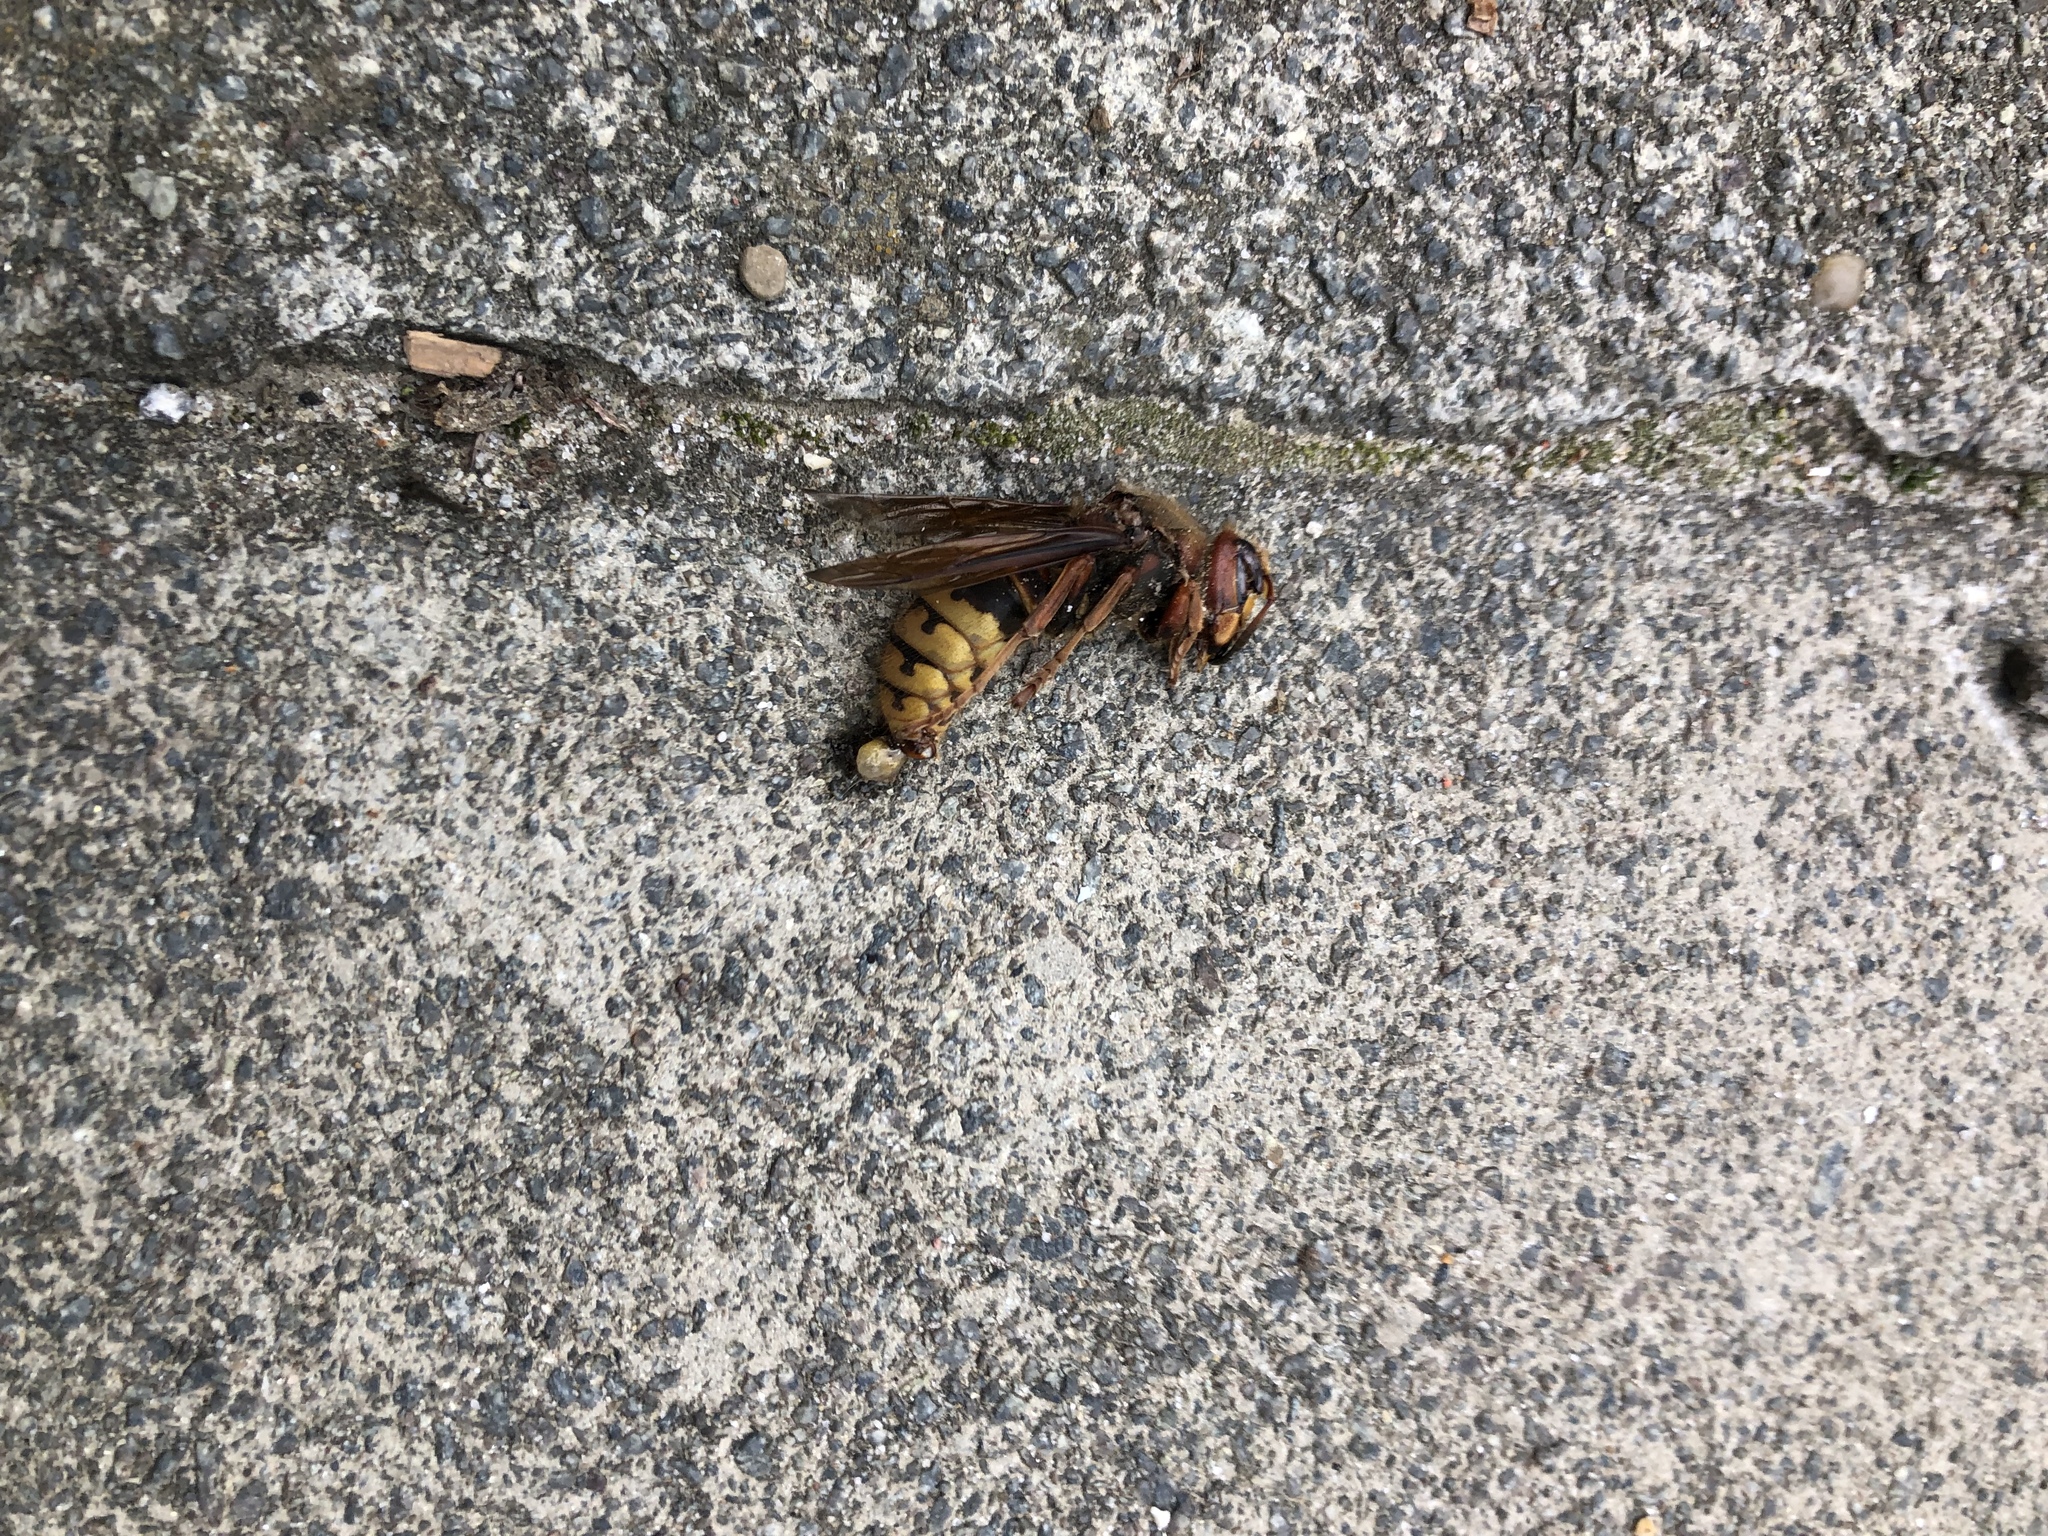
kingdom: Animalia
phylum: Arthropoda
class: Insecta
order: Hymenoptera
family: Vespidae
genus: Vespa
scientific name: Vespa crabro
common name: Hornet
